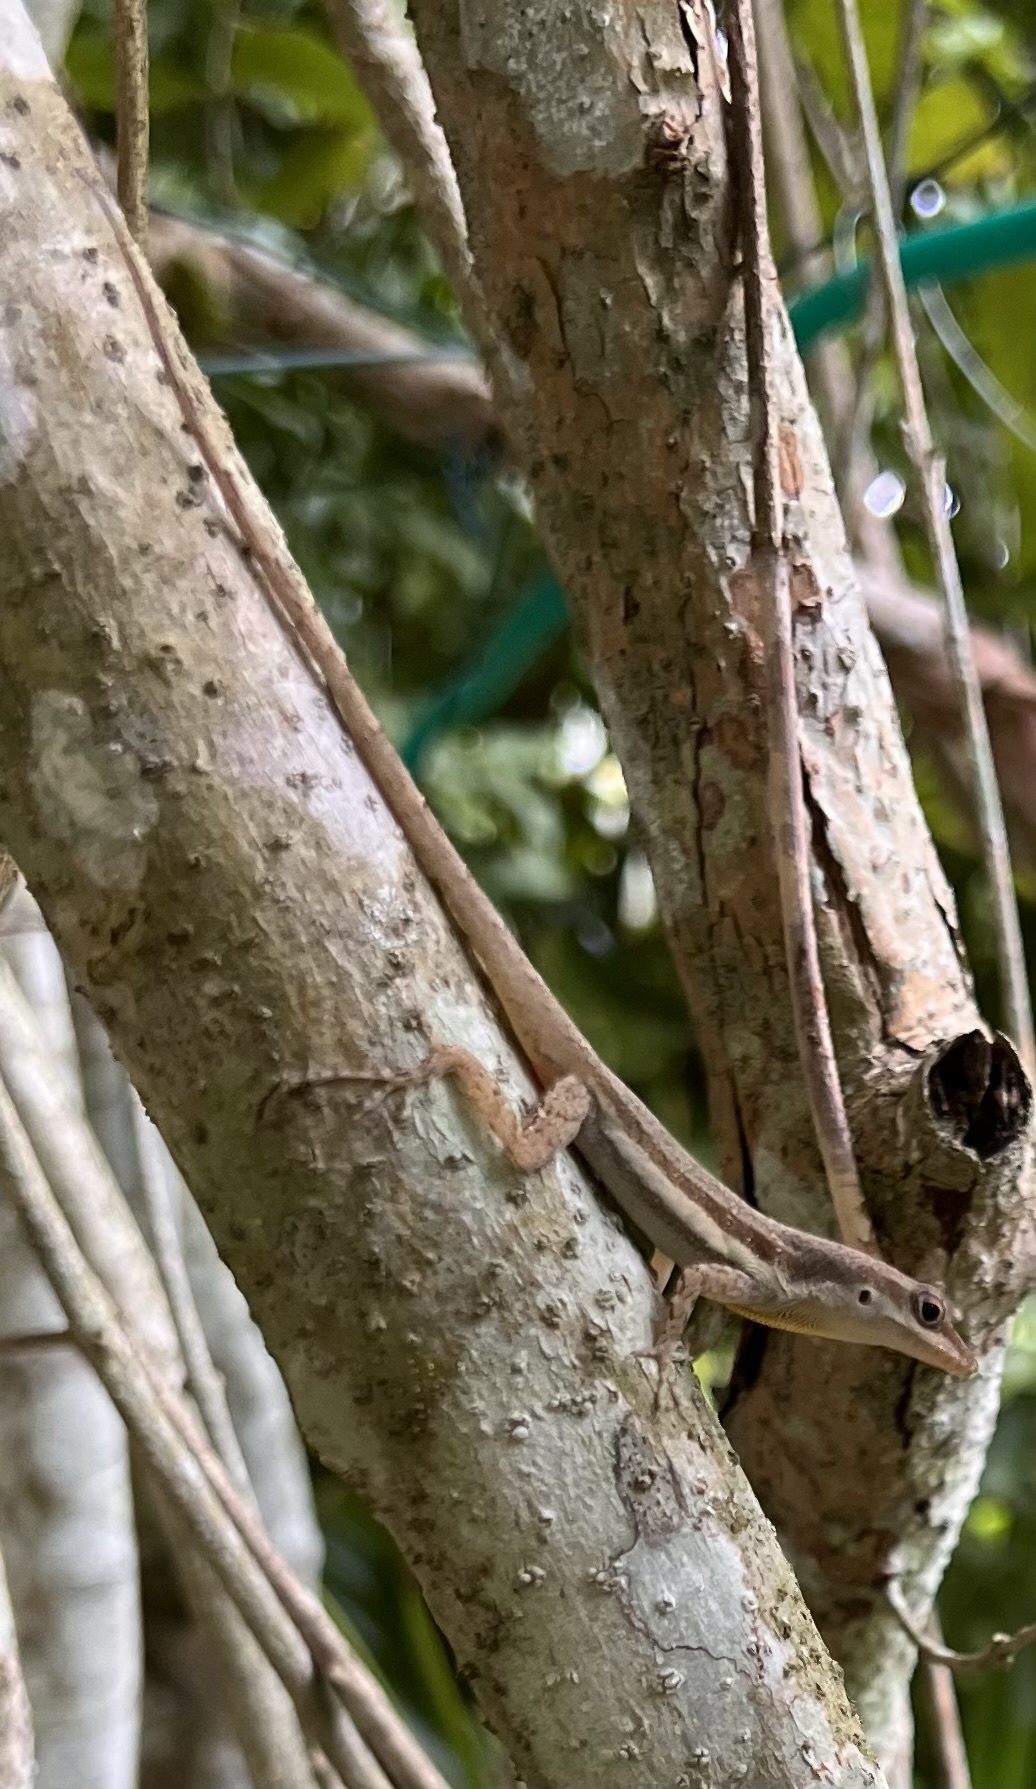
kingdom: Animalia
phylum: Chordata
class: Squamata
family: Dactyloidae
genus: Anolis
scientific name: Anolis opalinus
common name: Bluefields anole
